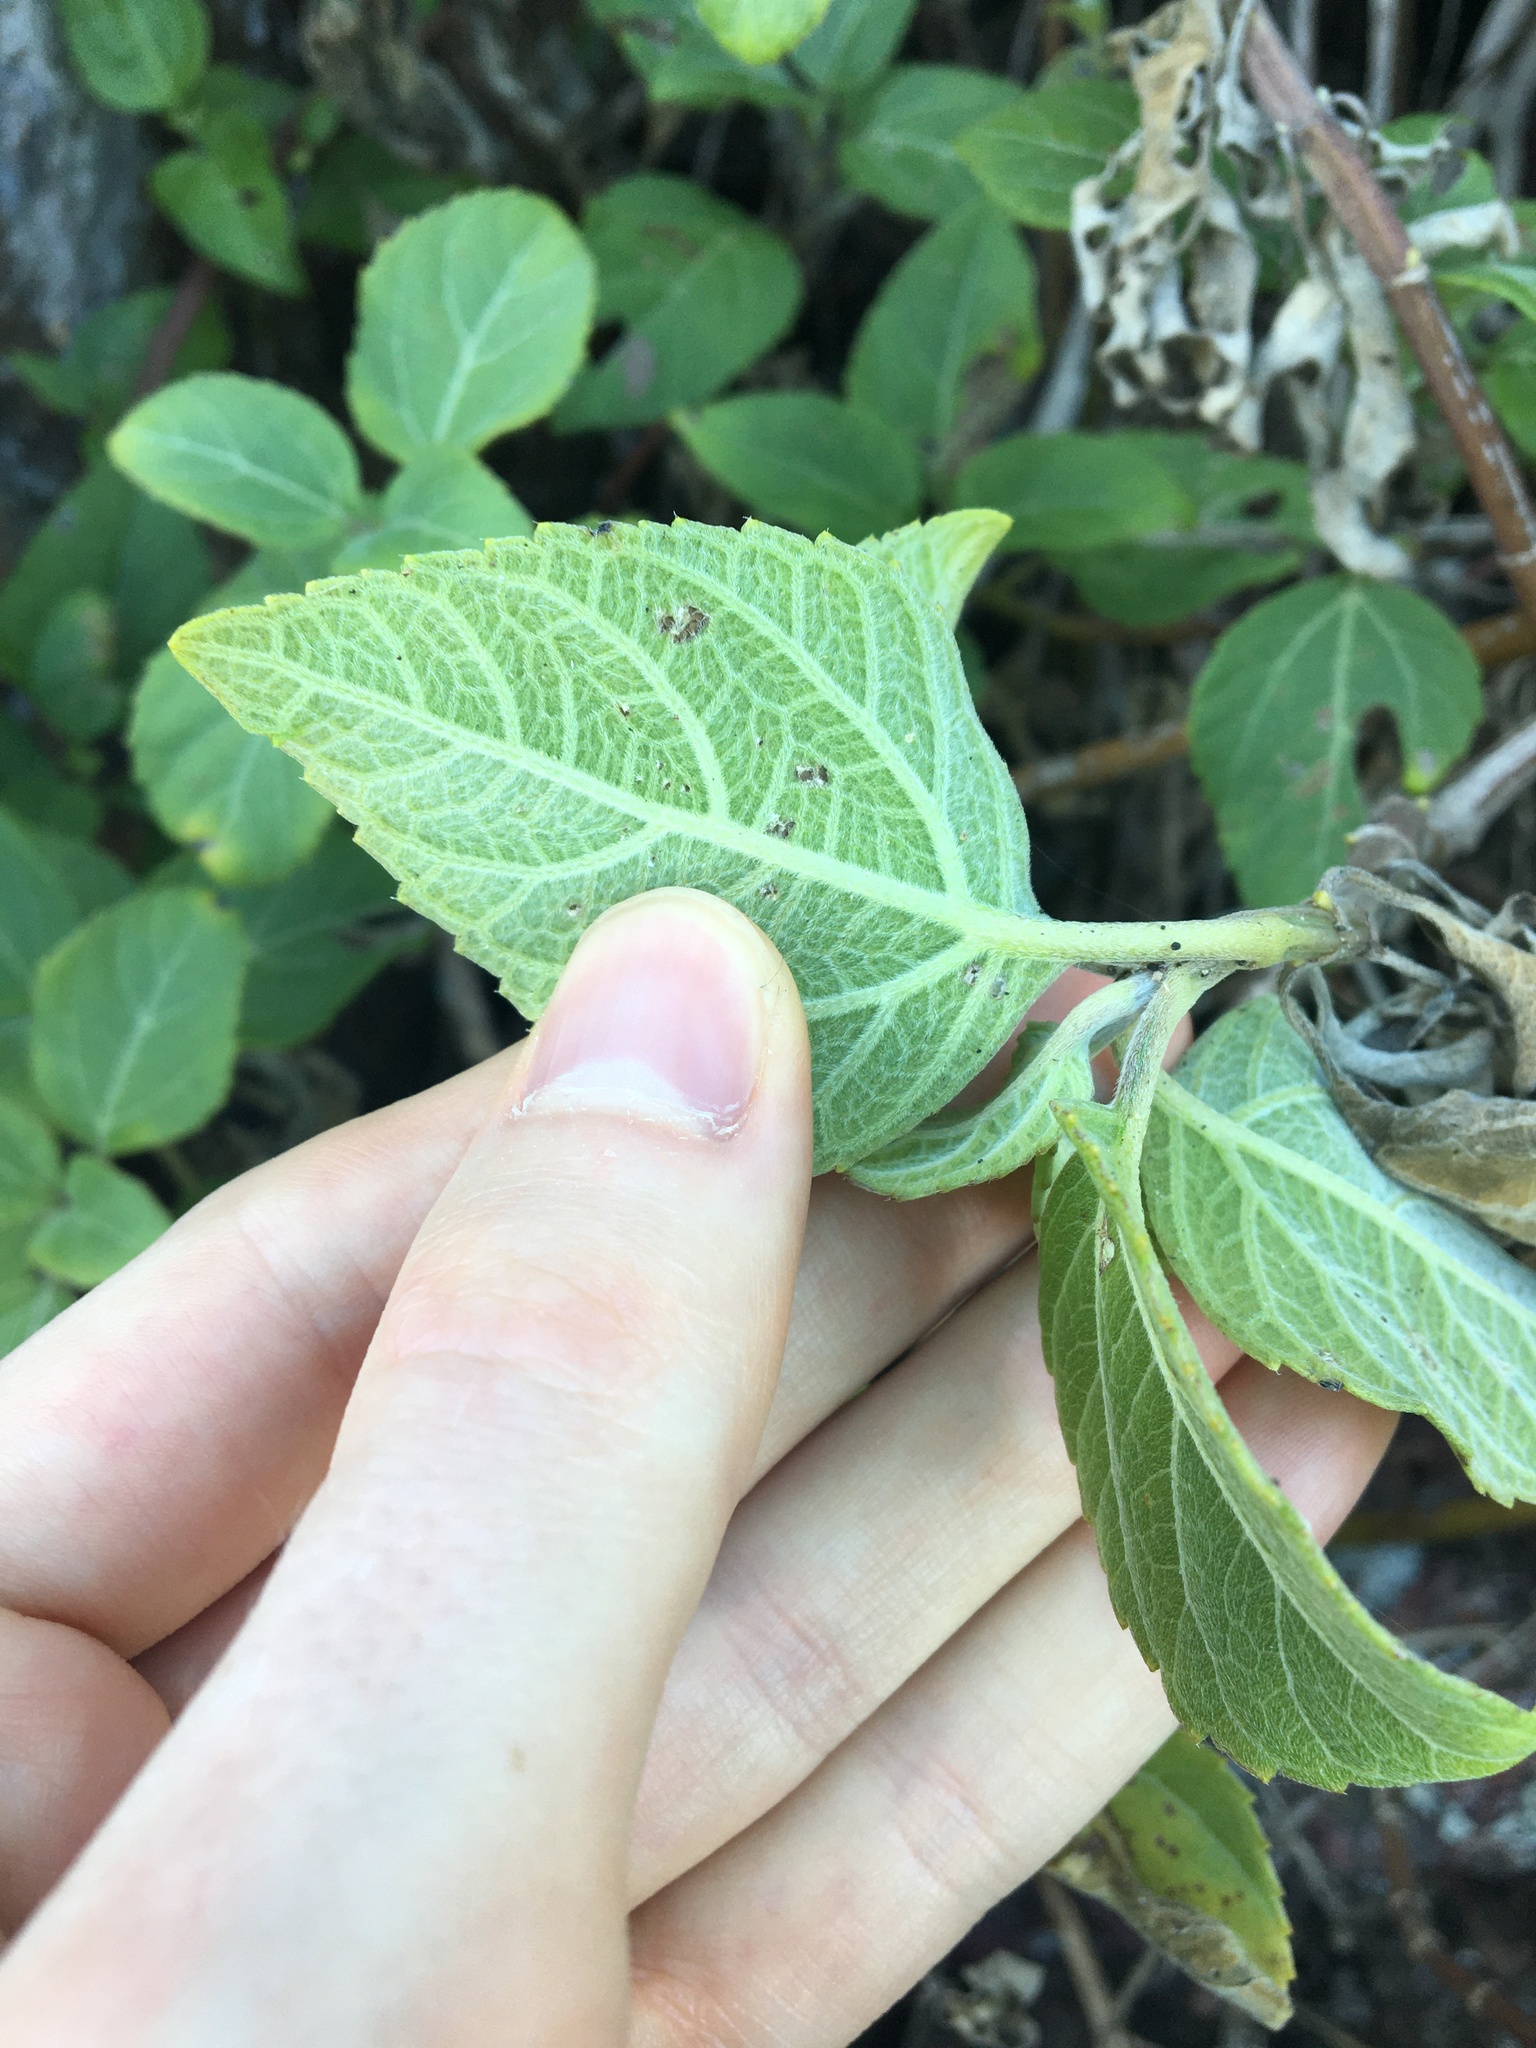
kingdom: Plantae
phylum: Tracheophyta
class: Magnoliopsida
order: Asterales
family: Asteraceae
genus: Wollastonia
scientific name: Wollastonia uniflora
